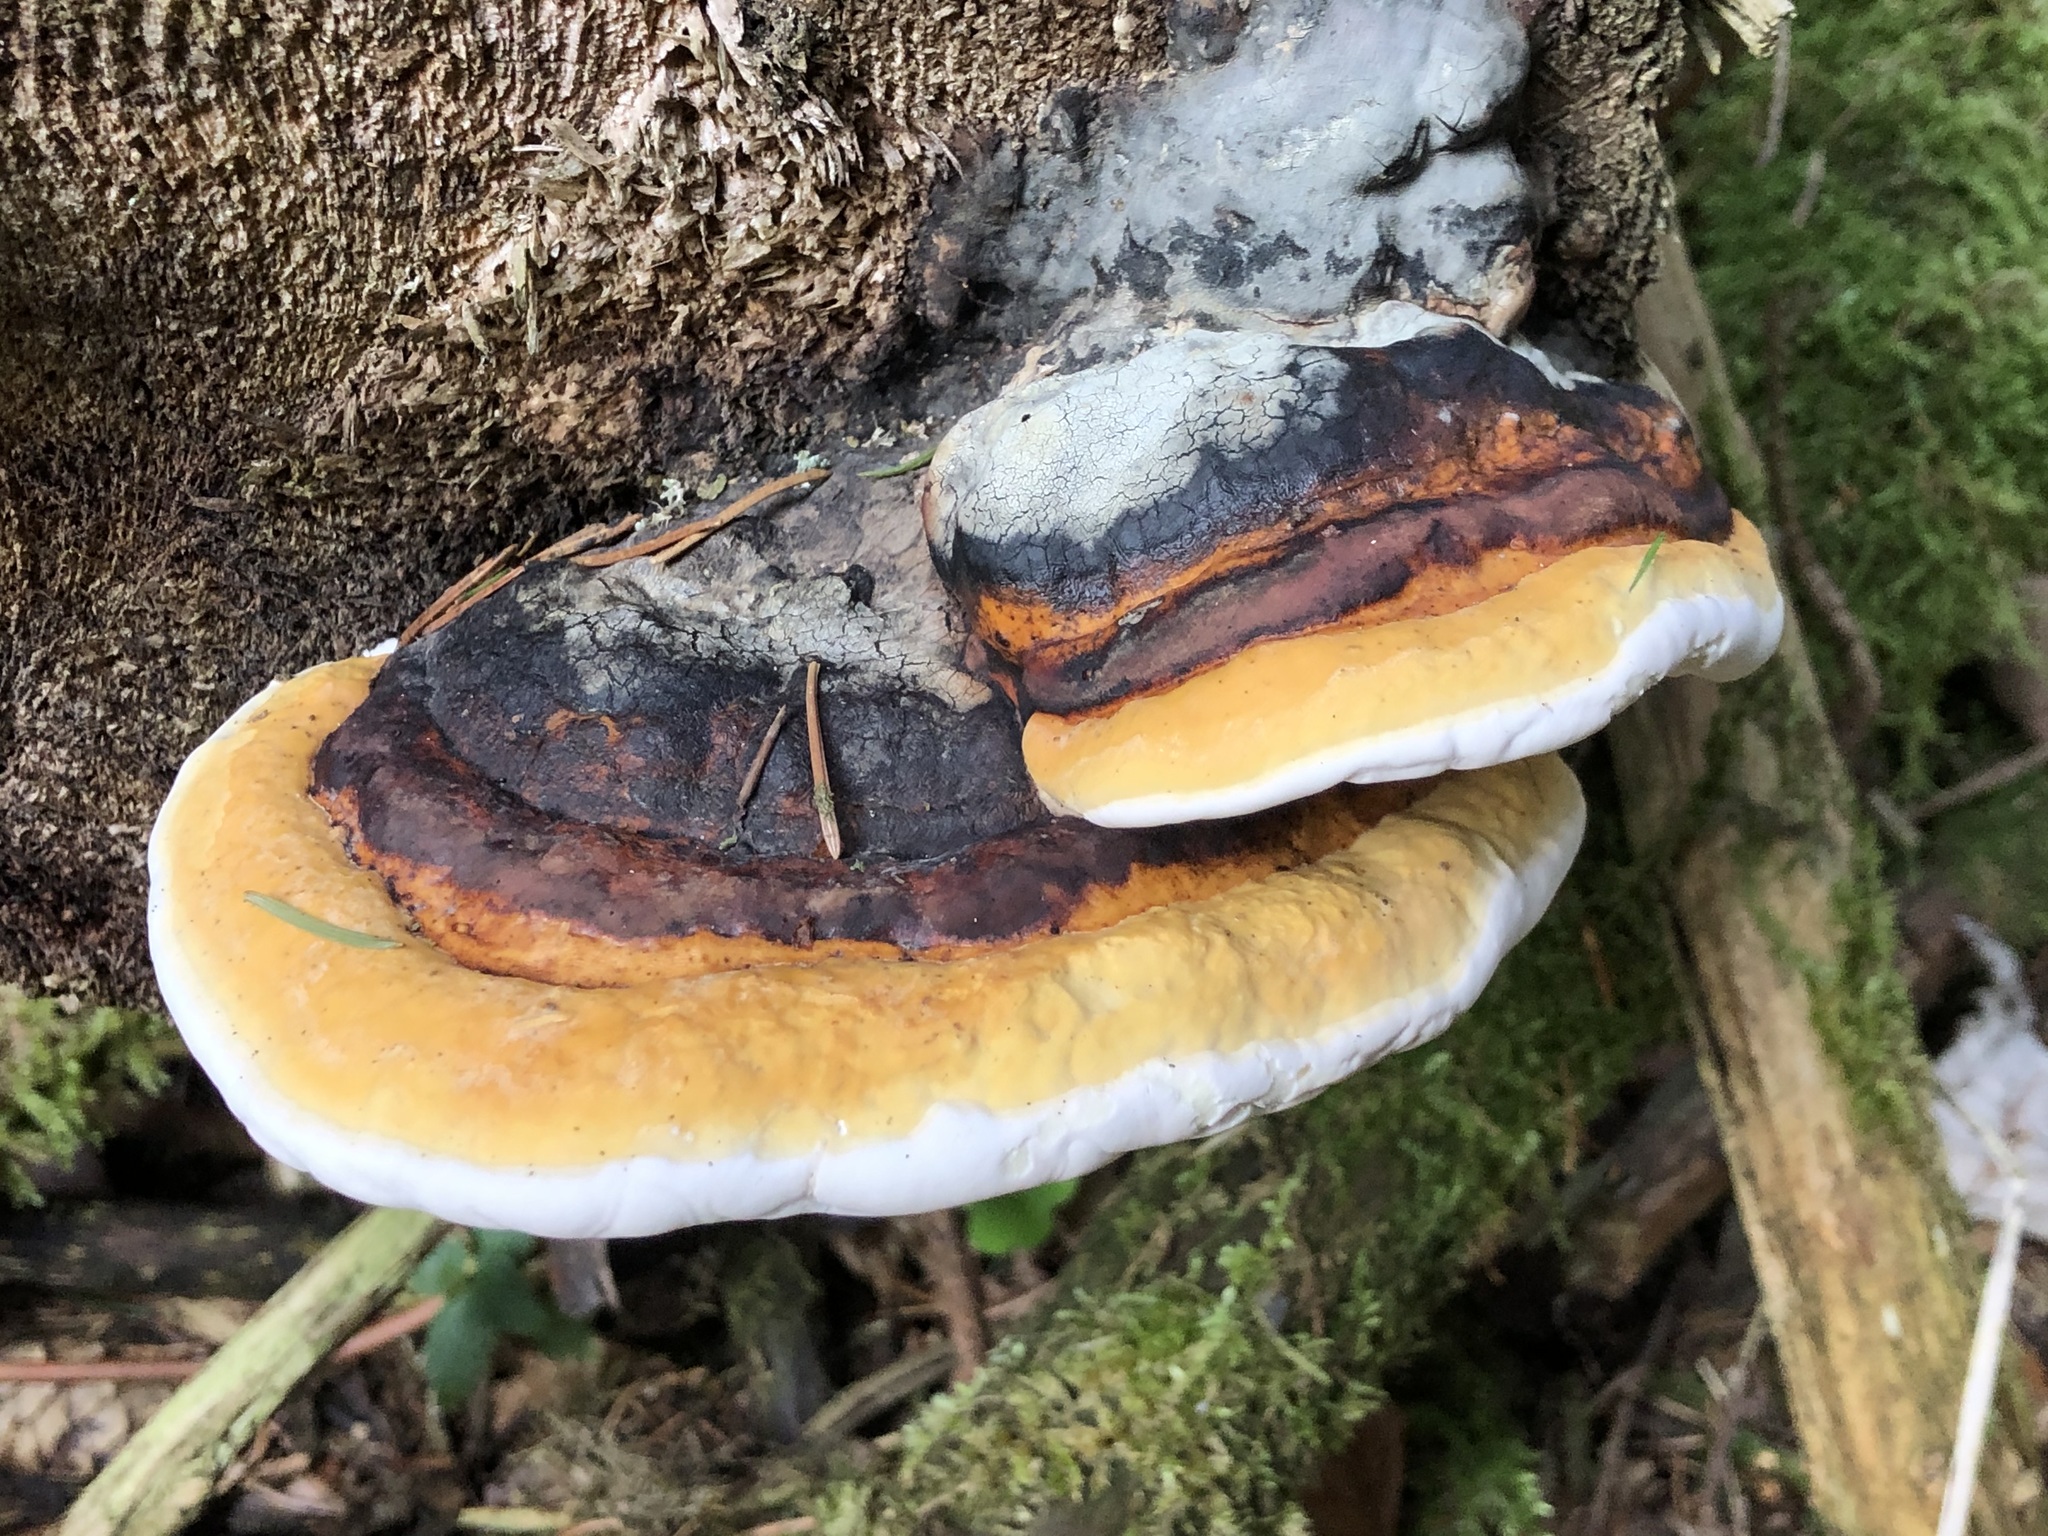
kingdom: Fungi
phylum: Basidiomycota
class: Agaricomycetes
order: Polyporales
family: Fomitopsidaceae
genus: Fomitopsis
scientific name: Fomitopsis pinicola
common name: Red-belted bracket
